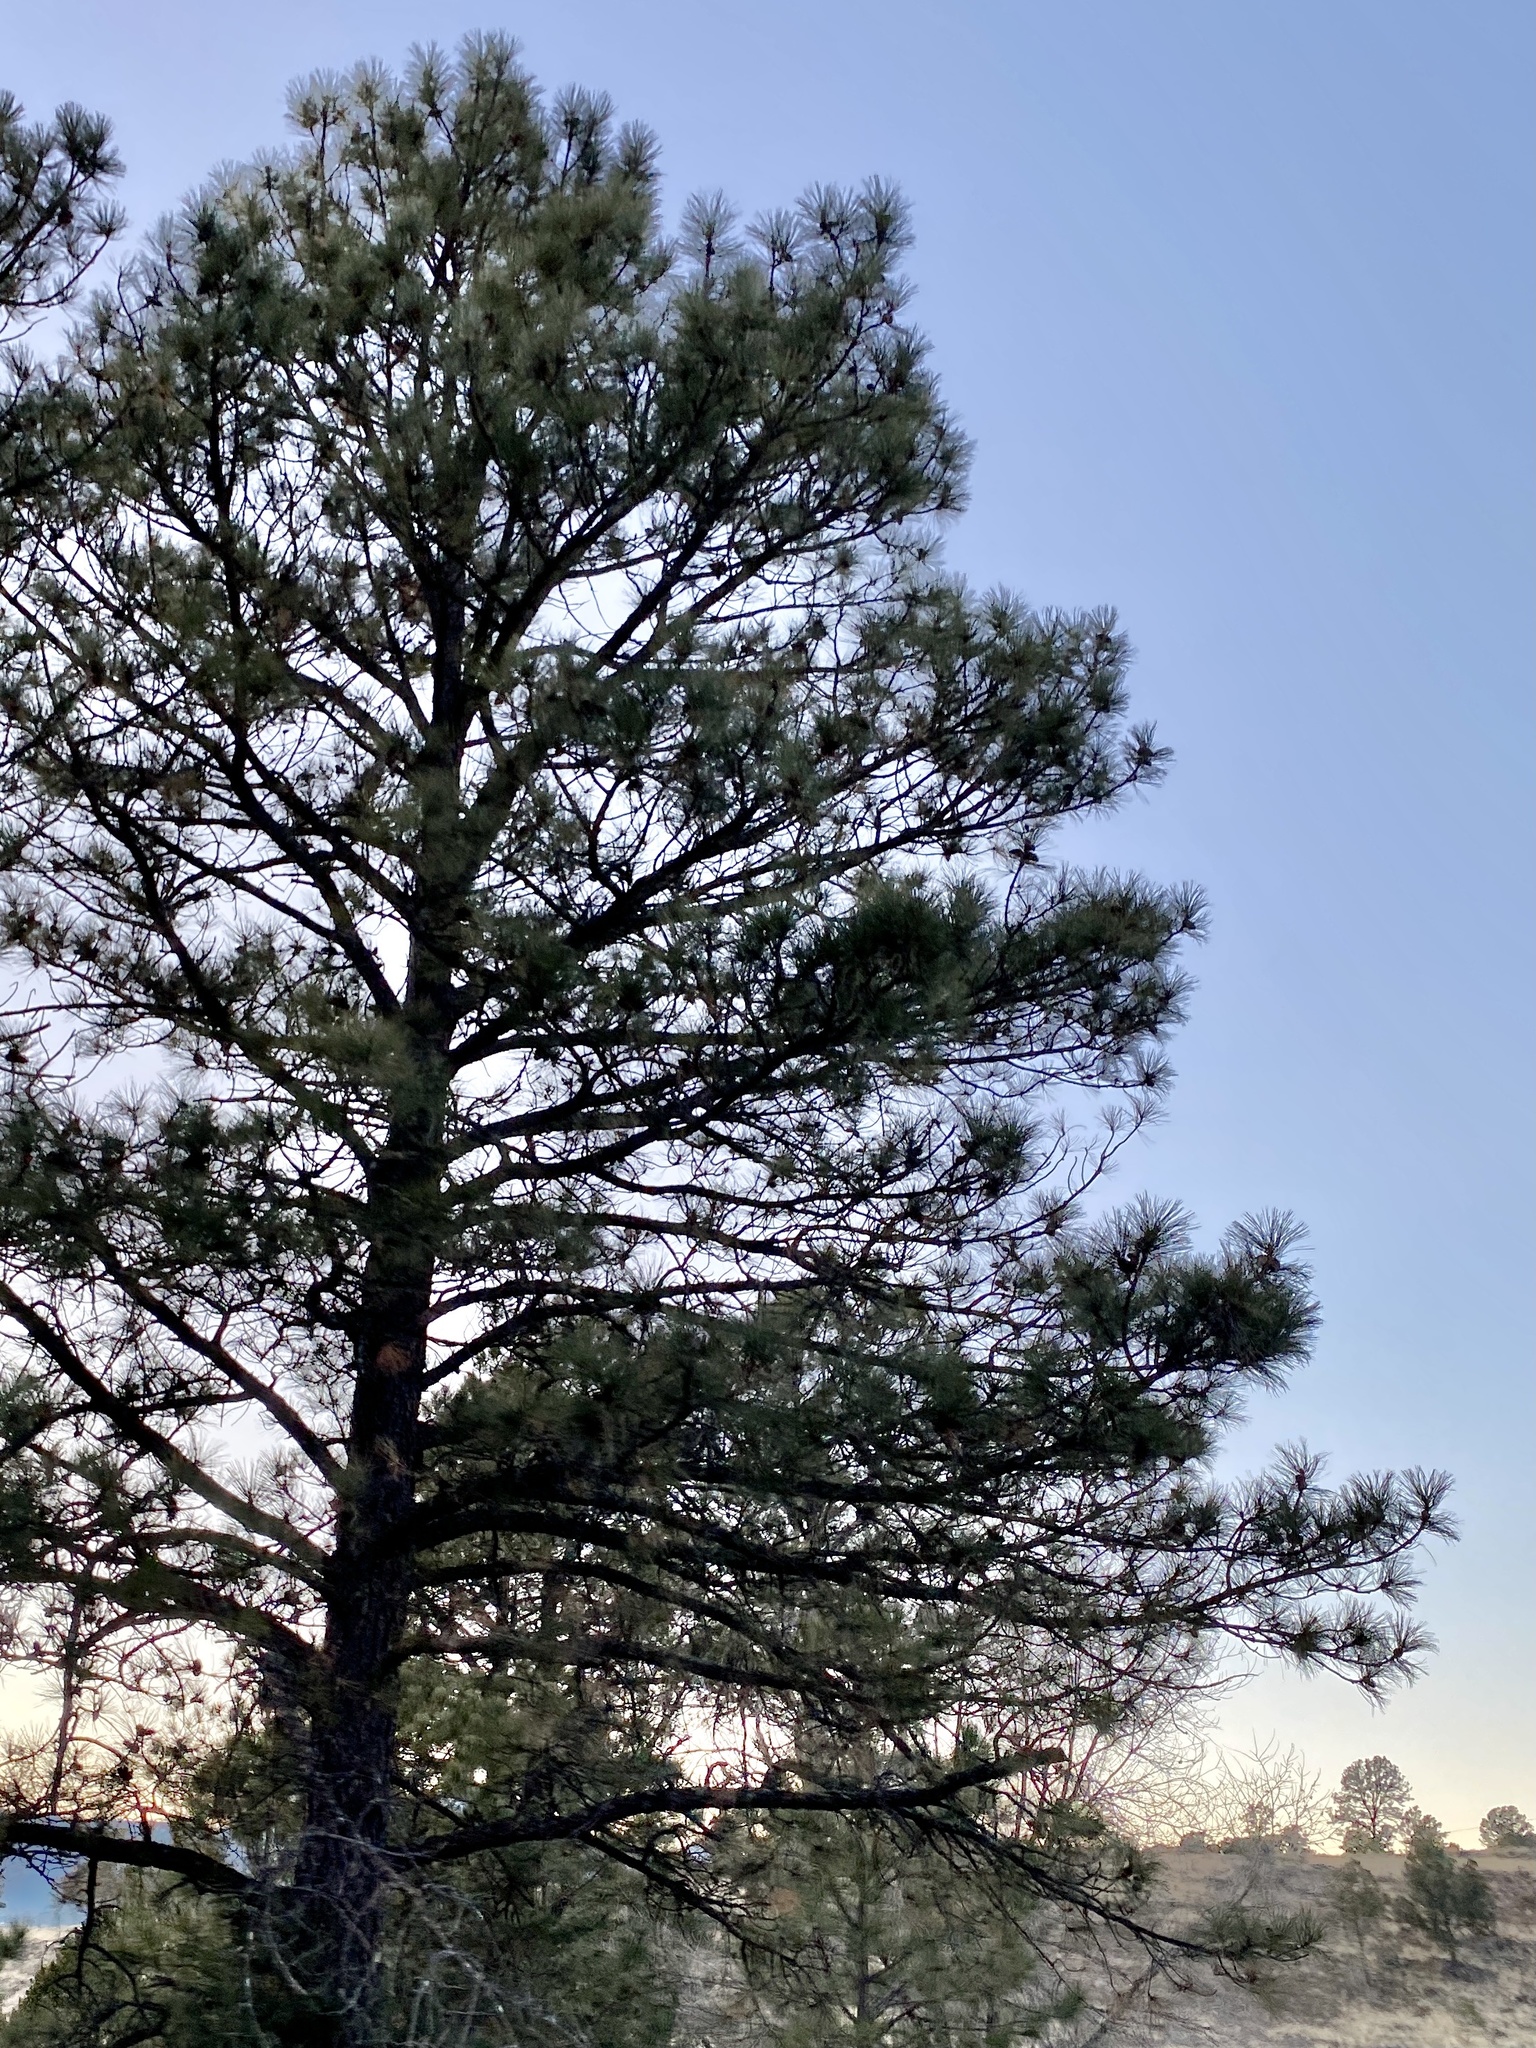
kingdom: Plantae
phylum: Tracheophyta
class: Pinopsida
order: Pinales
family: Pinaceae
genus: Pinus
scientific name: Pinus ponderosa
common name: Western yellow-pine
